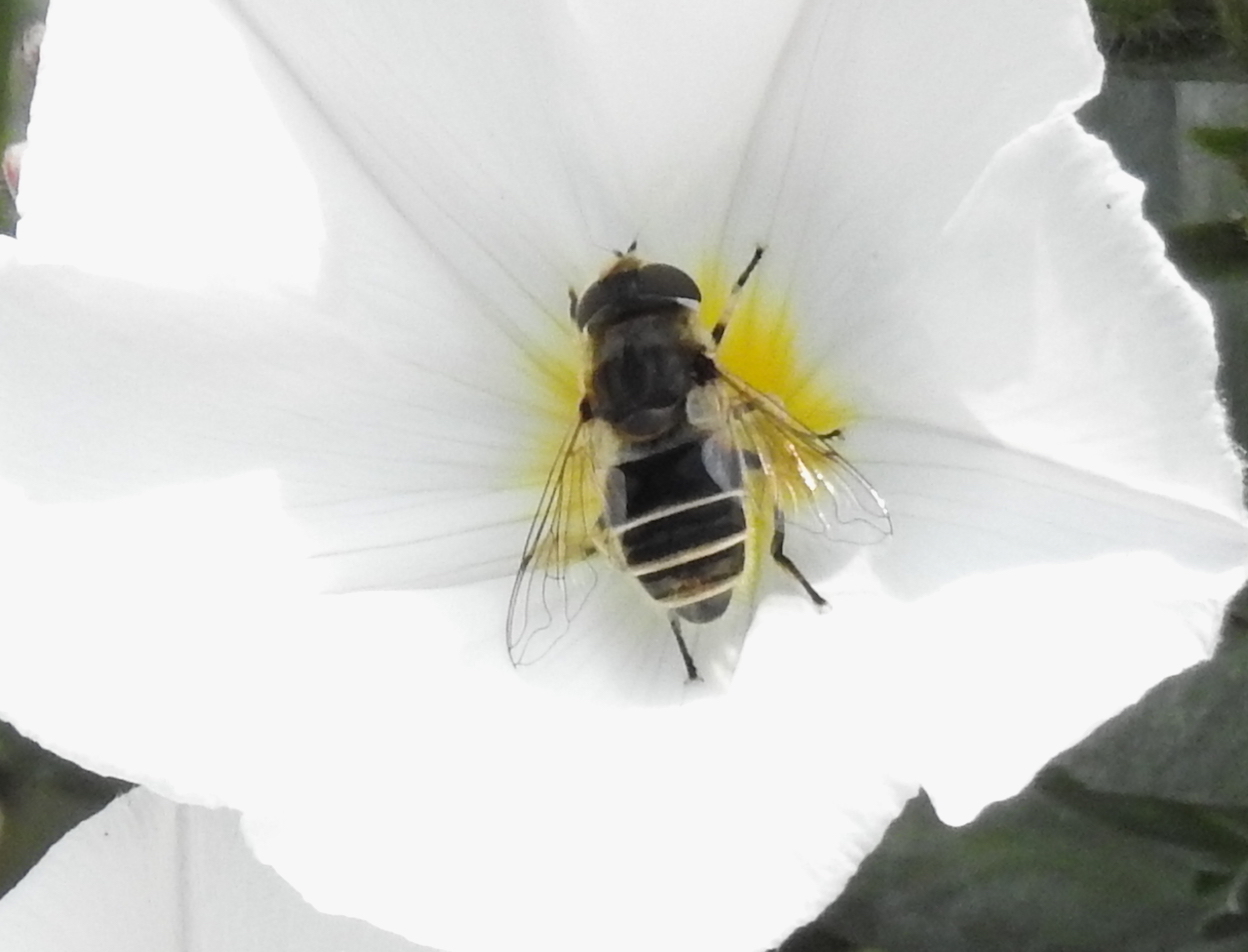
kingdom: Animalia
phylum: Arthropoda
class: Insecta
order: Diptera
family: Syrphidae
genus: Eristalis
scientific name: Eristalis arbustorum
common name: Hover fly
